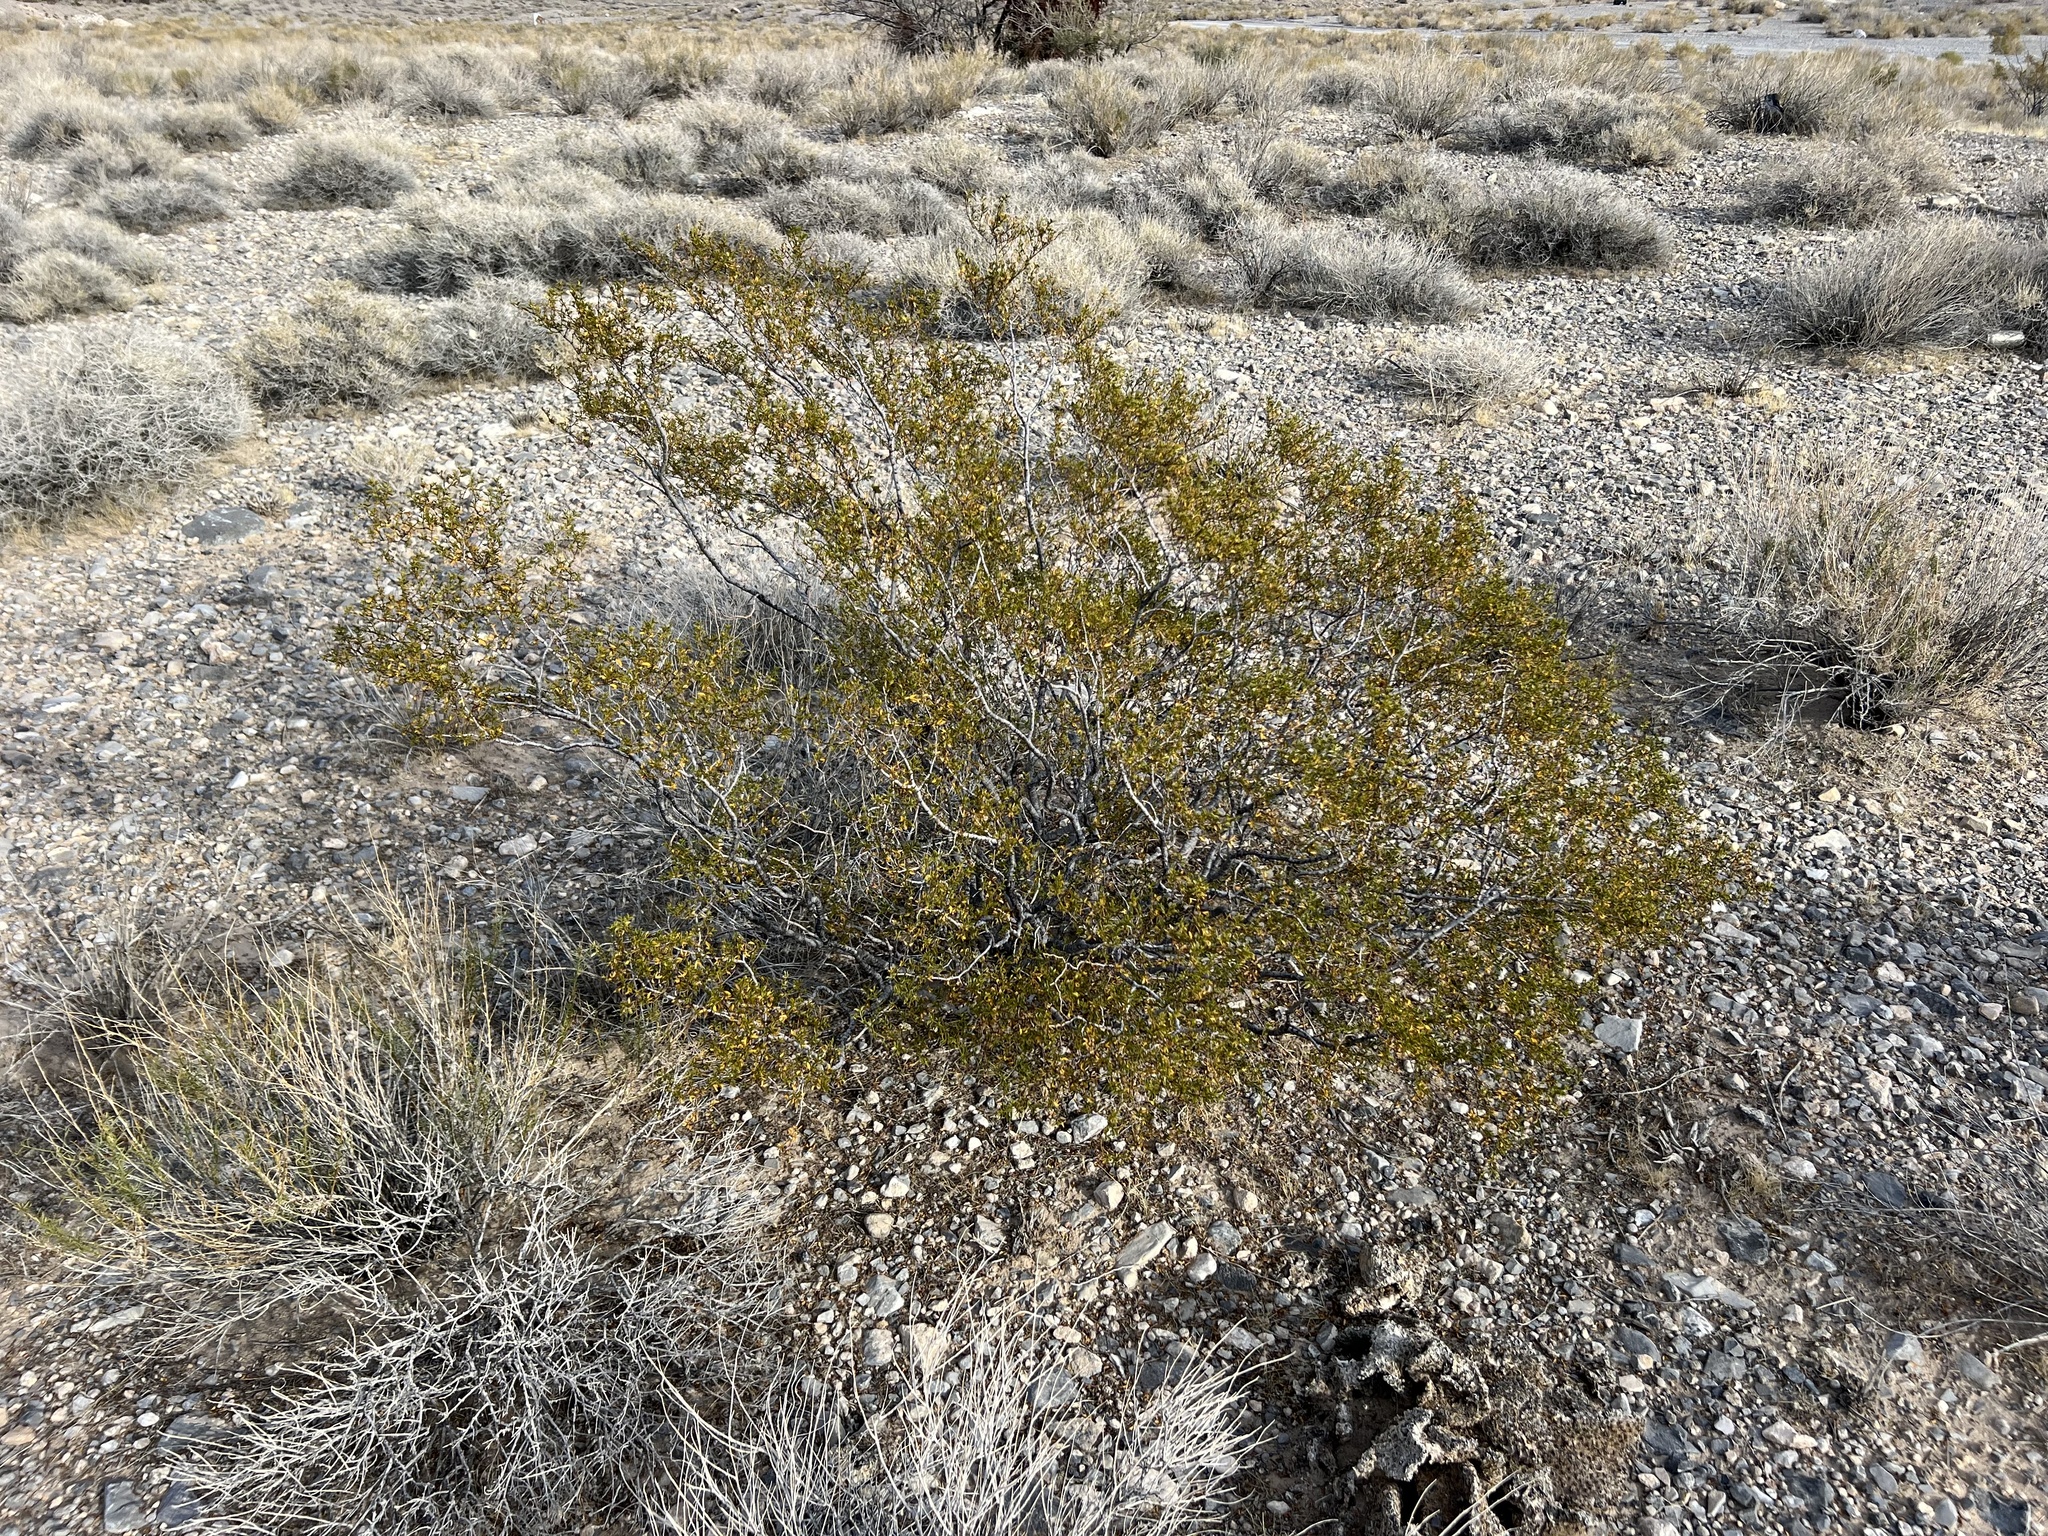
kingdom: Plantae
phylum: Tracheophyta
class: Magnoliopsida
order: Zygophyllales
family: Zygophyllaceae
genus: Larrea
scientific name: Larrea tridentata
